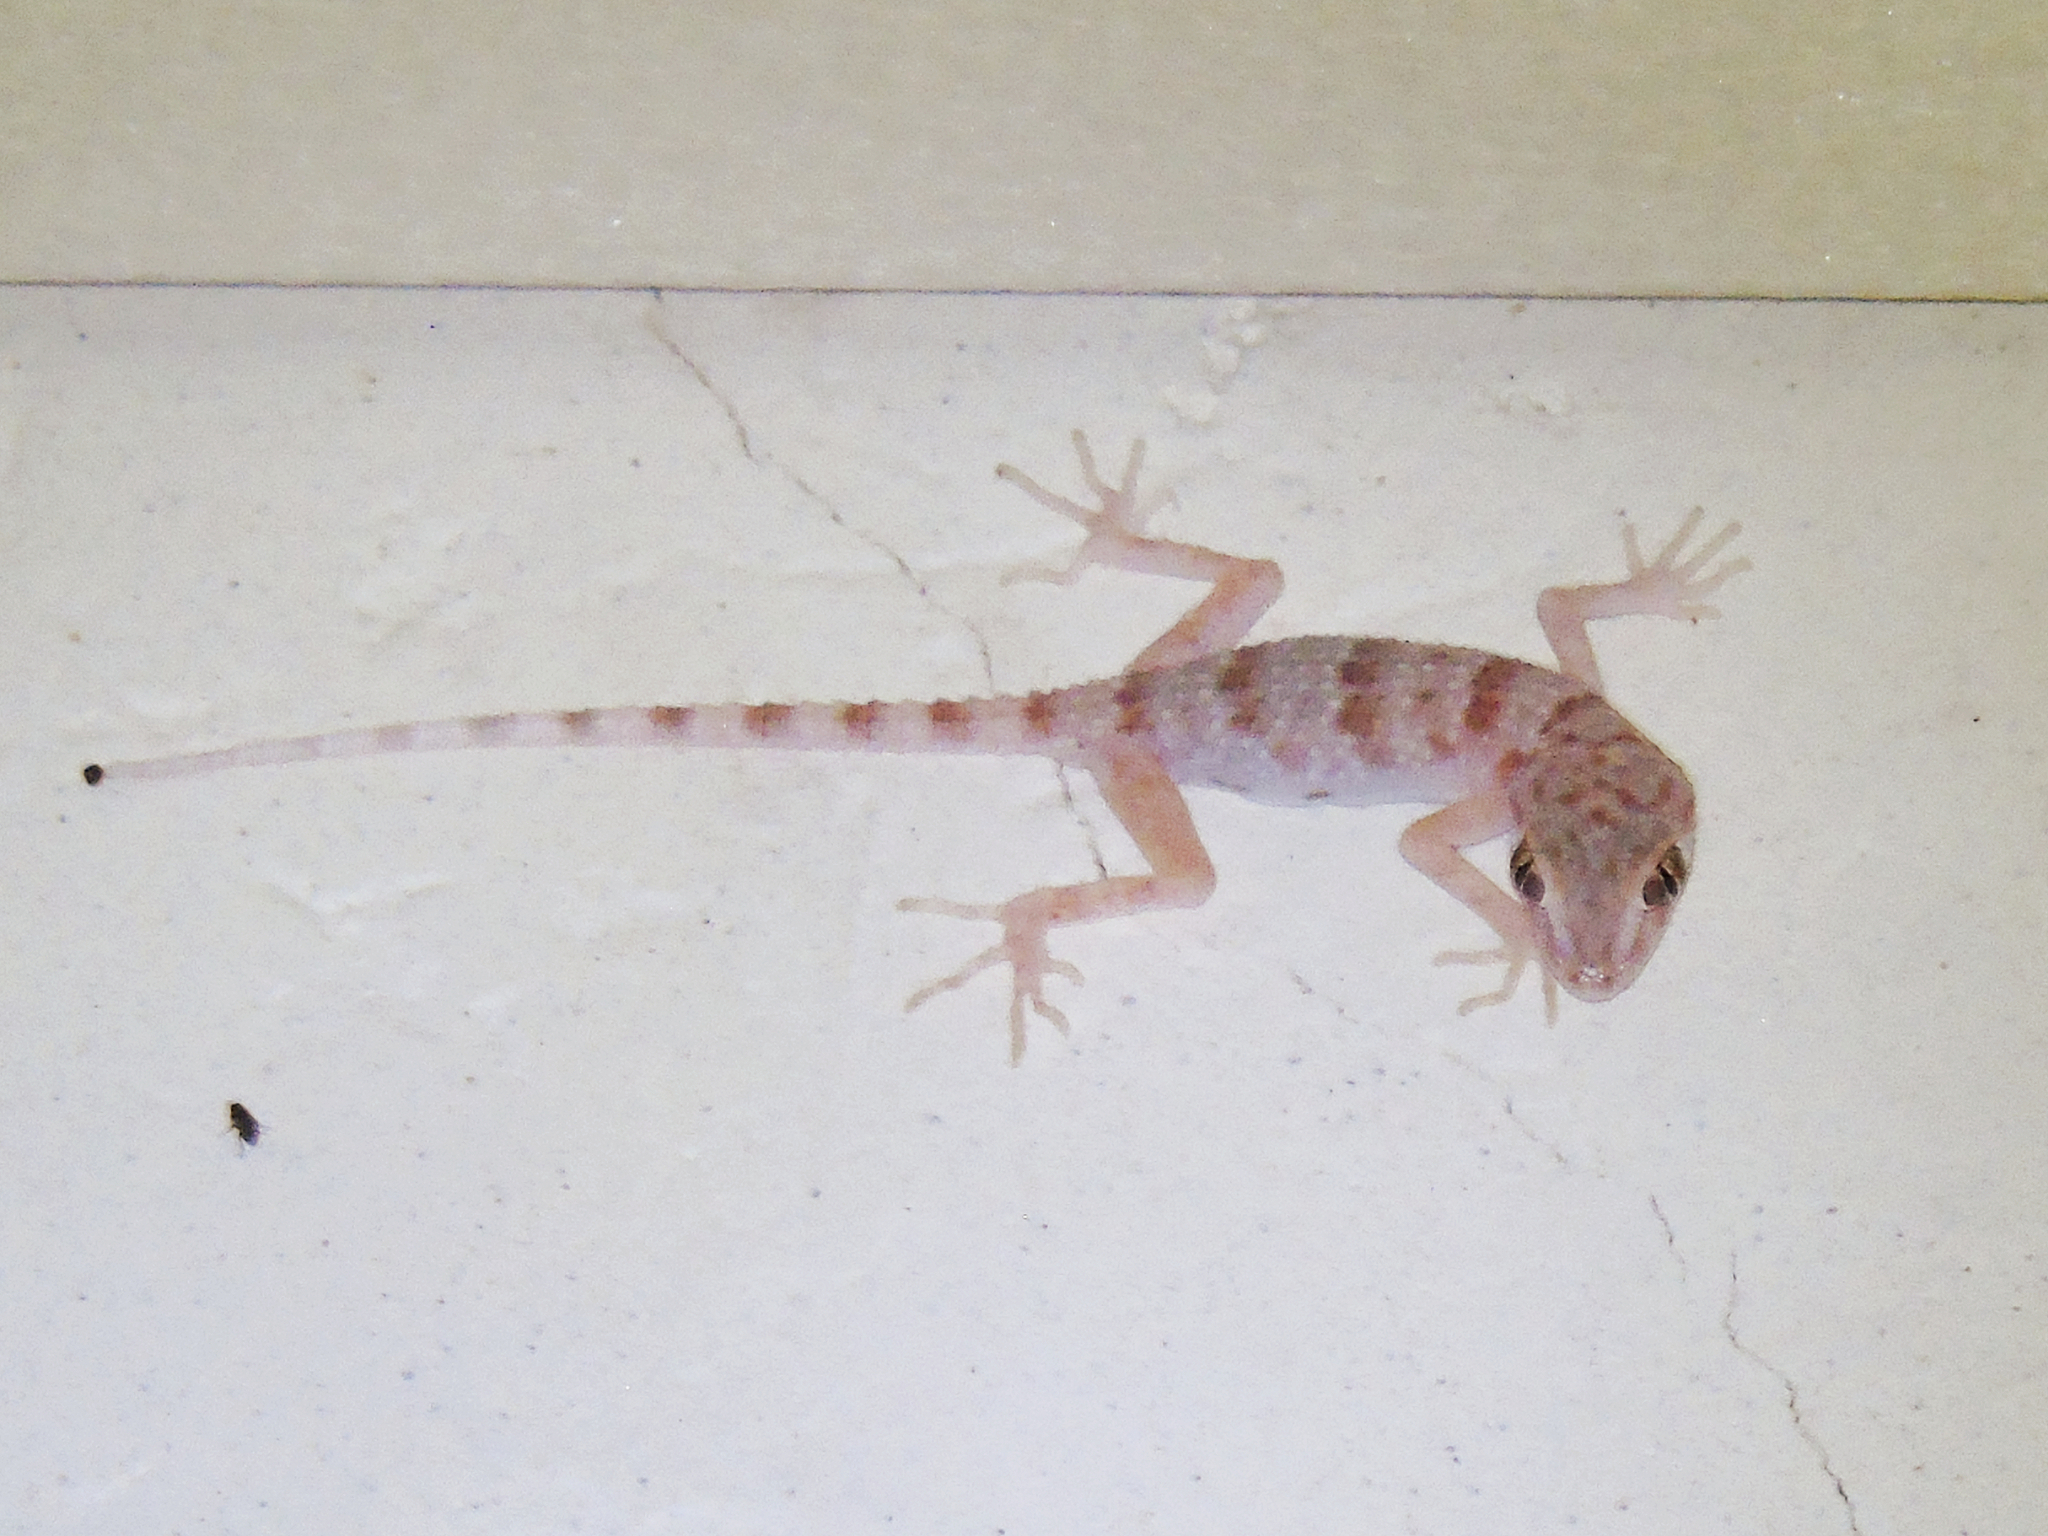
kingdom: Animalia
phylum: Chordata
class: Squamata
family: Gekkonidae
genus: Tenuidactylus
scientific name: Tenuidactylus bogdanovi
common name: Bogdanov’s thin-toed gecko
